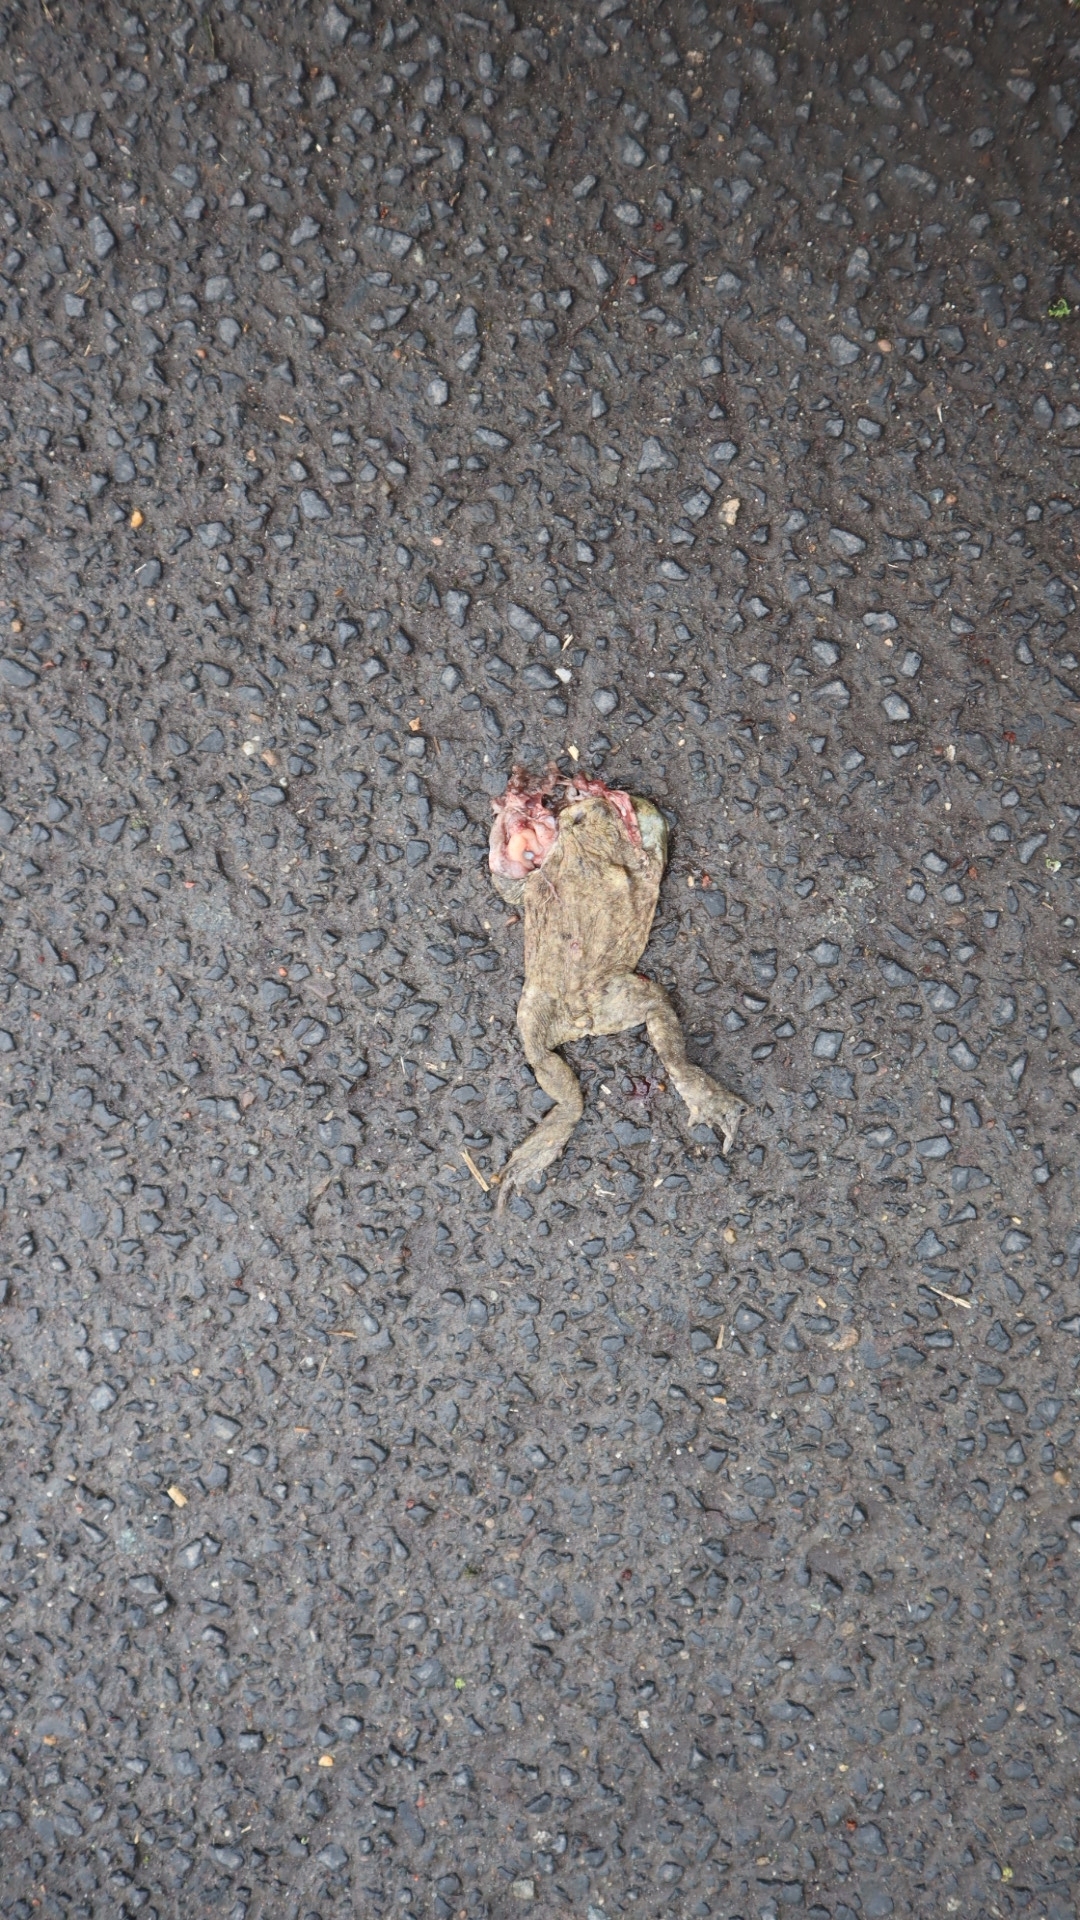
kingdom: Animalia
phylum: Chordata
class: Amphibia
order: Anura
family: Bufonidae
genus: Bufo
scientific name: Bufo bufo
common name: Common toad
